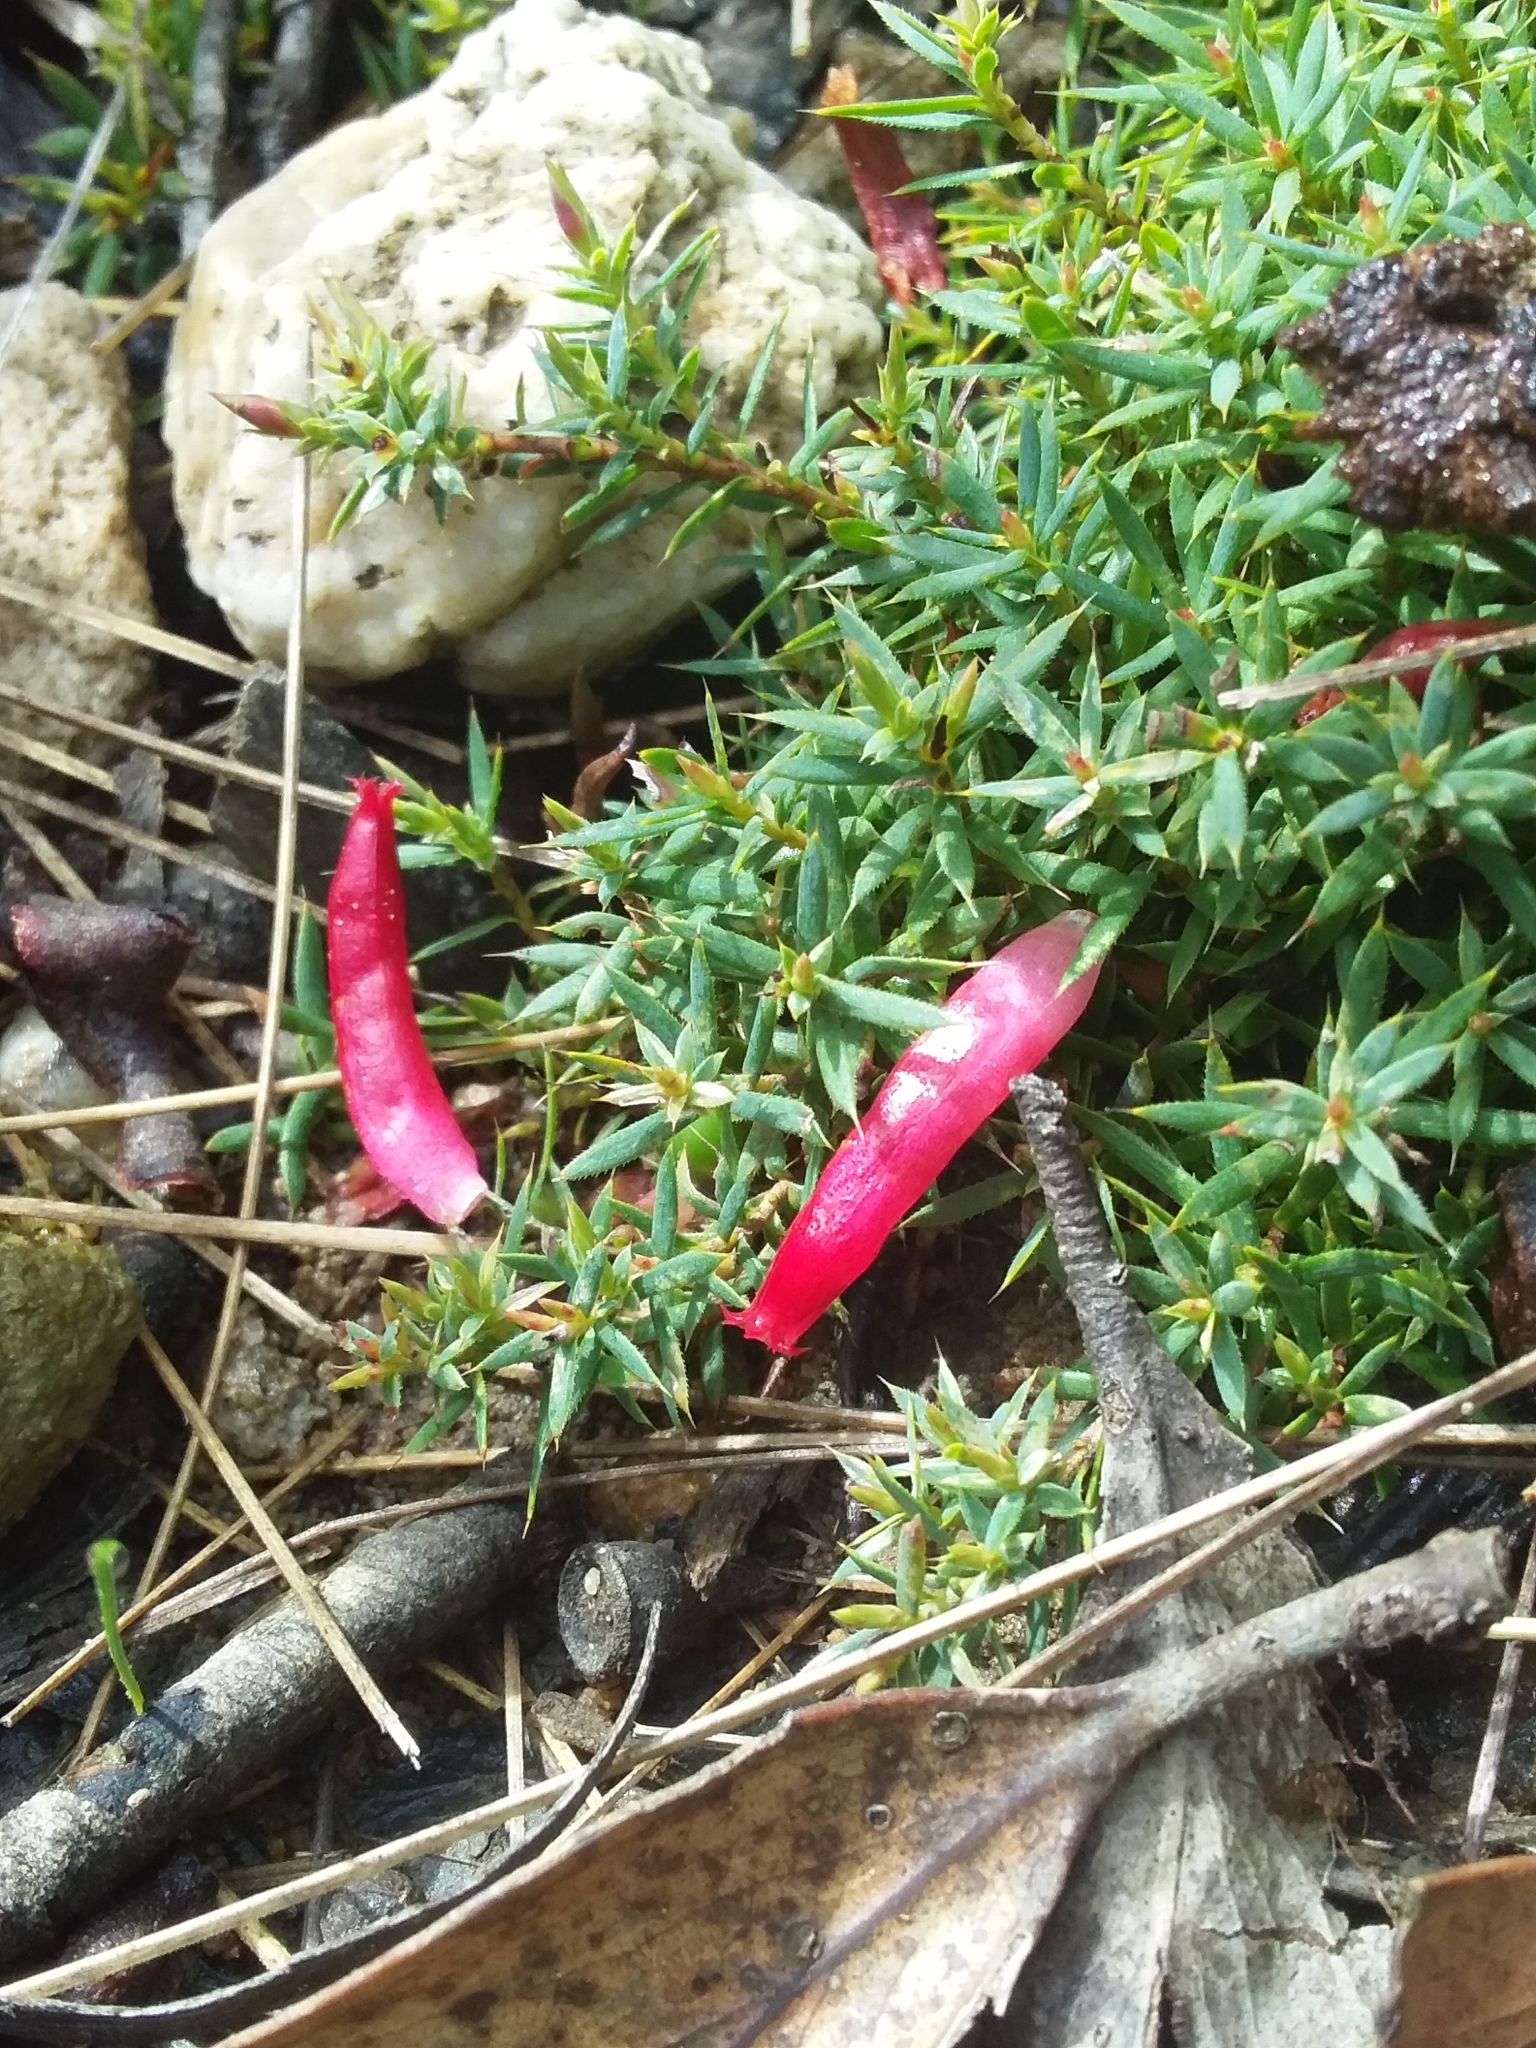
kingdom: Plantae
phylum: Tracheophyta
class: Magnoliopsida
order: Ericales
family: Ericaceae
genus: Styphelia
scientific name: Styphelia humifusa
